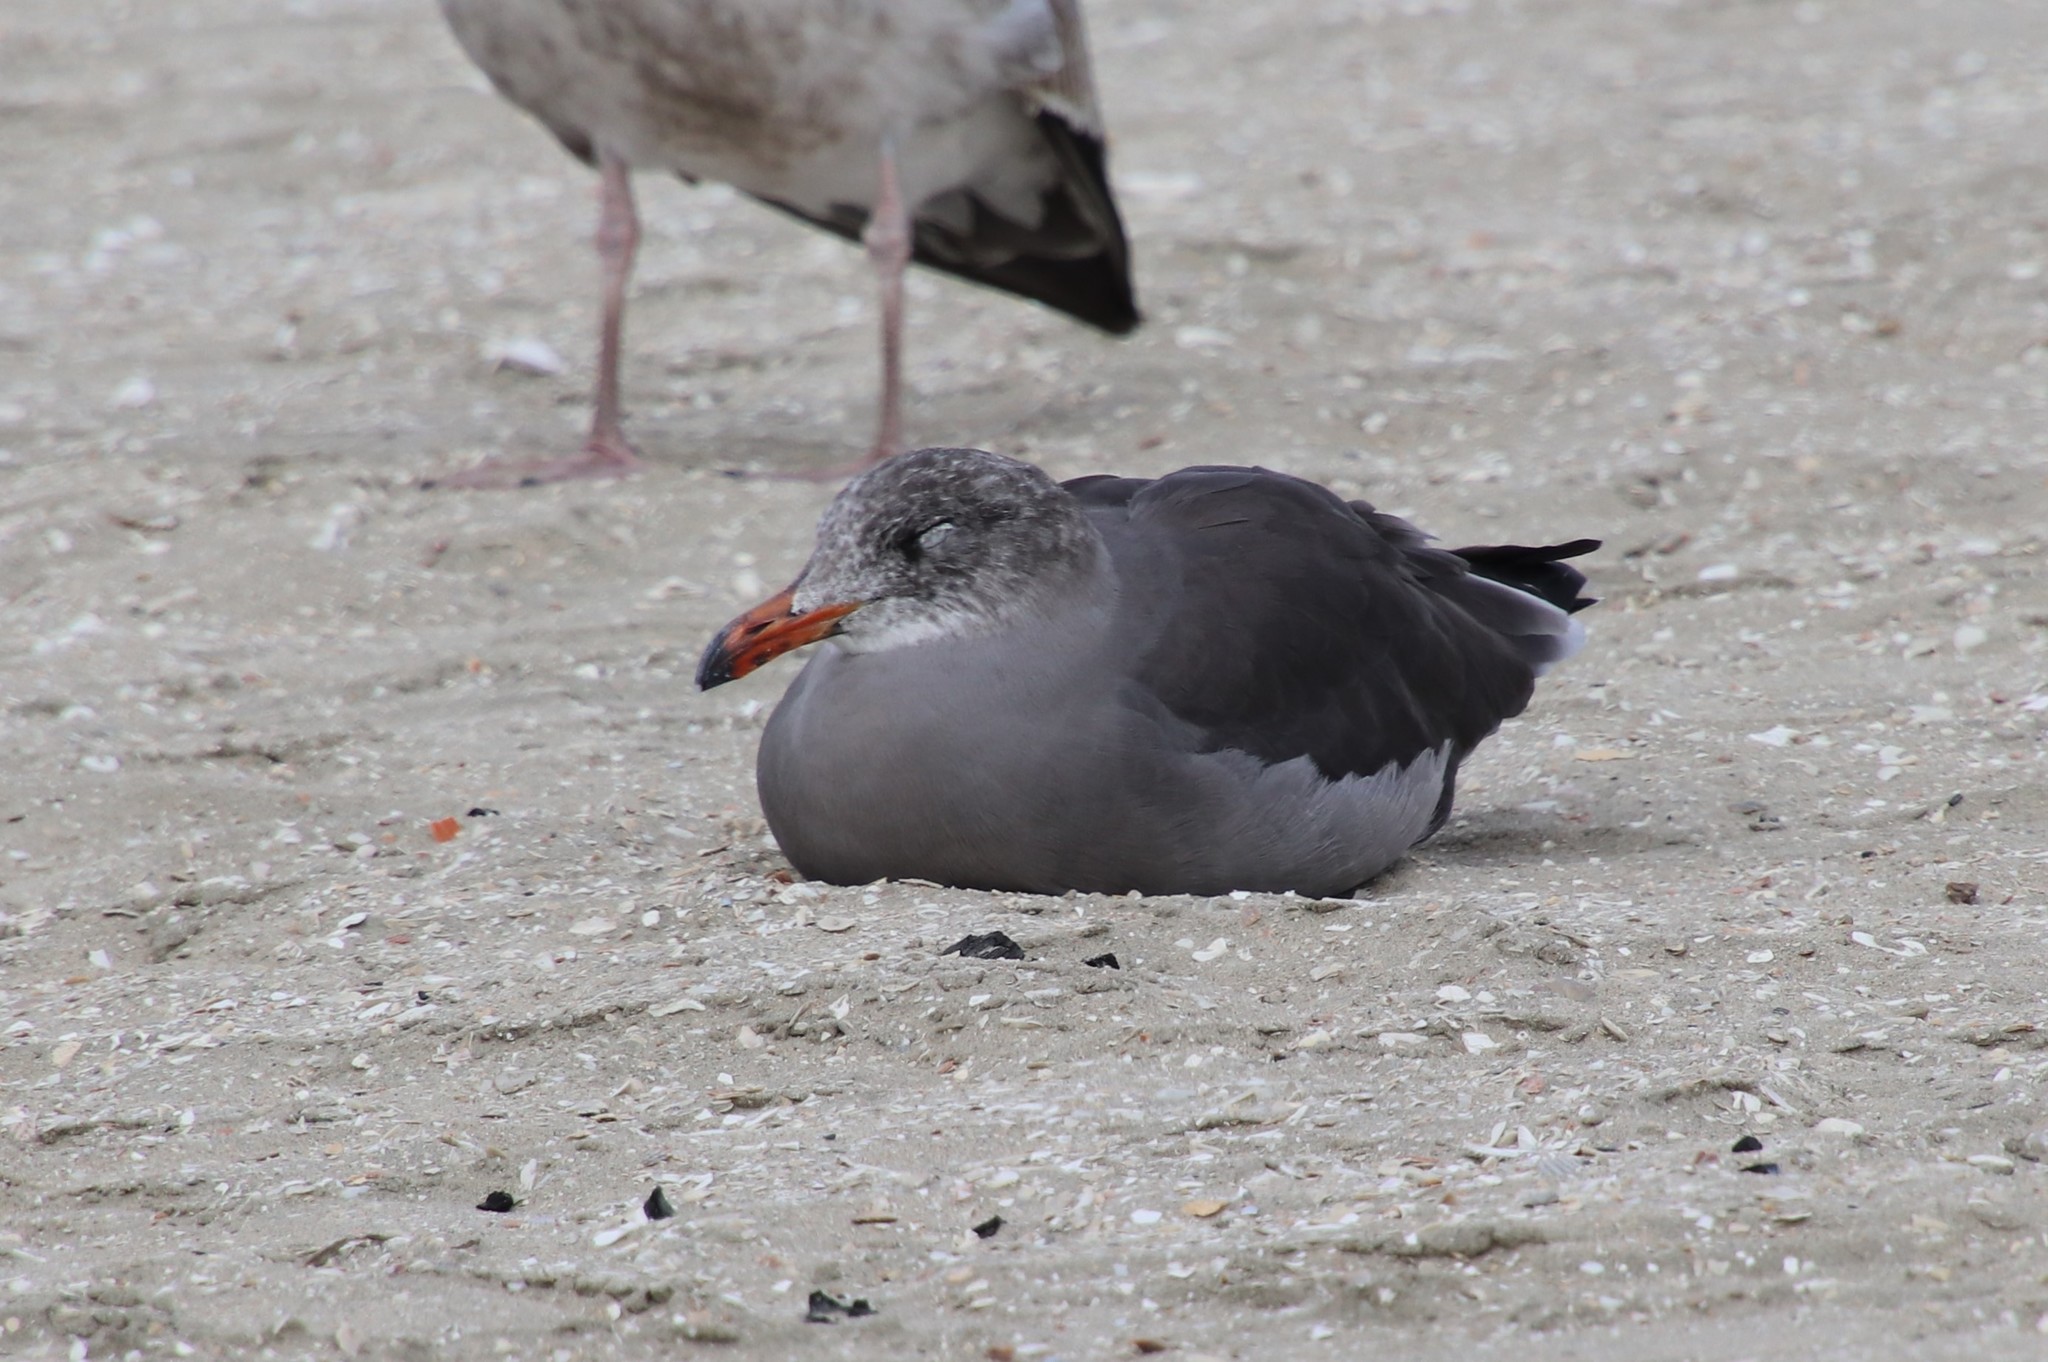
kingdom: Animalia
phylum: Chordata
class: Aves
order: Charadriiformes
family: Laridae
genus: Larus
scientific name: Larus heermanni
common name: Heermann's gull
